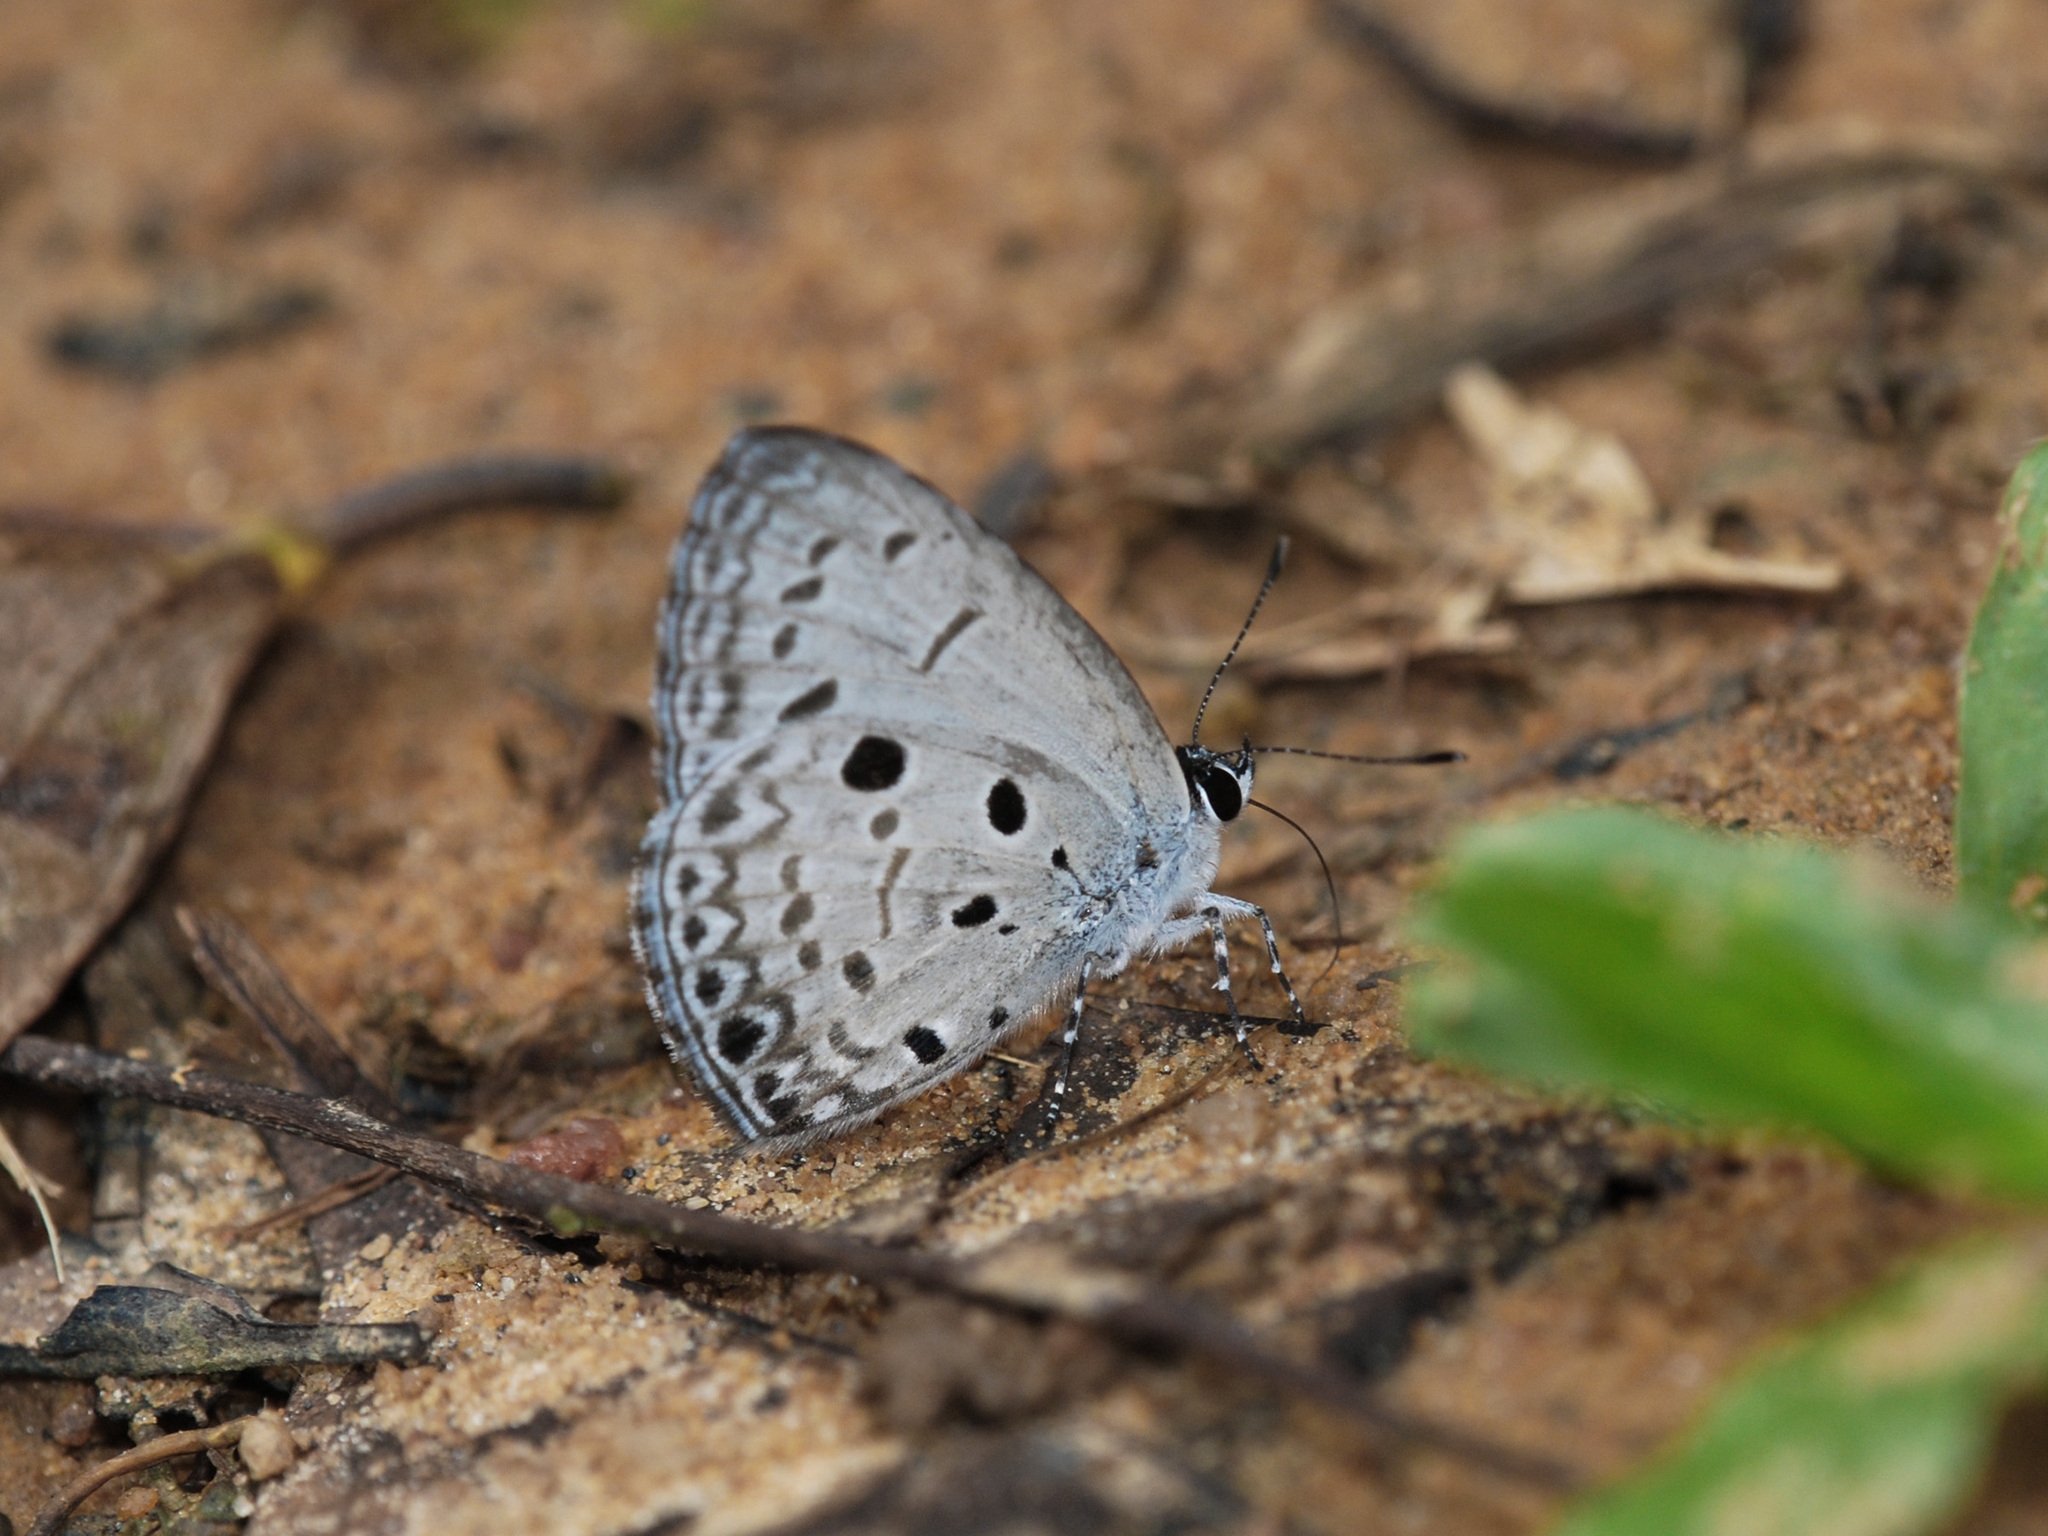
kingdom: Animalia
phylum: Arthropoda
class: Insecta
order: Lepidoptera
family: Lycaenidae
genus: Acytolepis
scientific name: Acytolepis puspa
